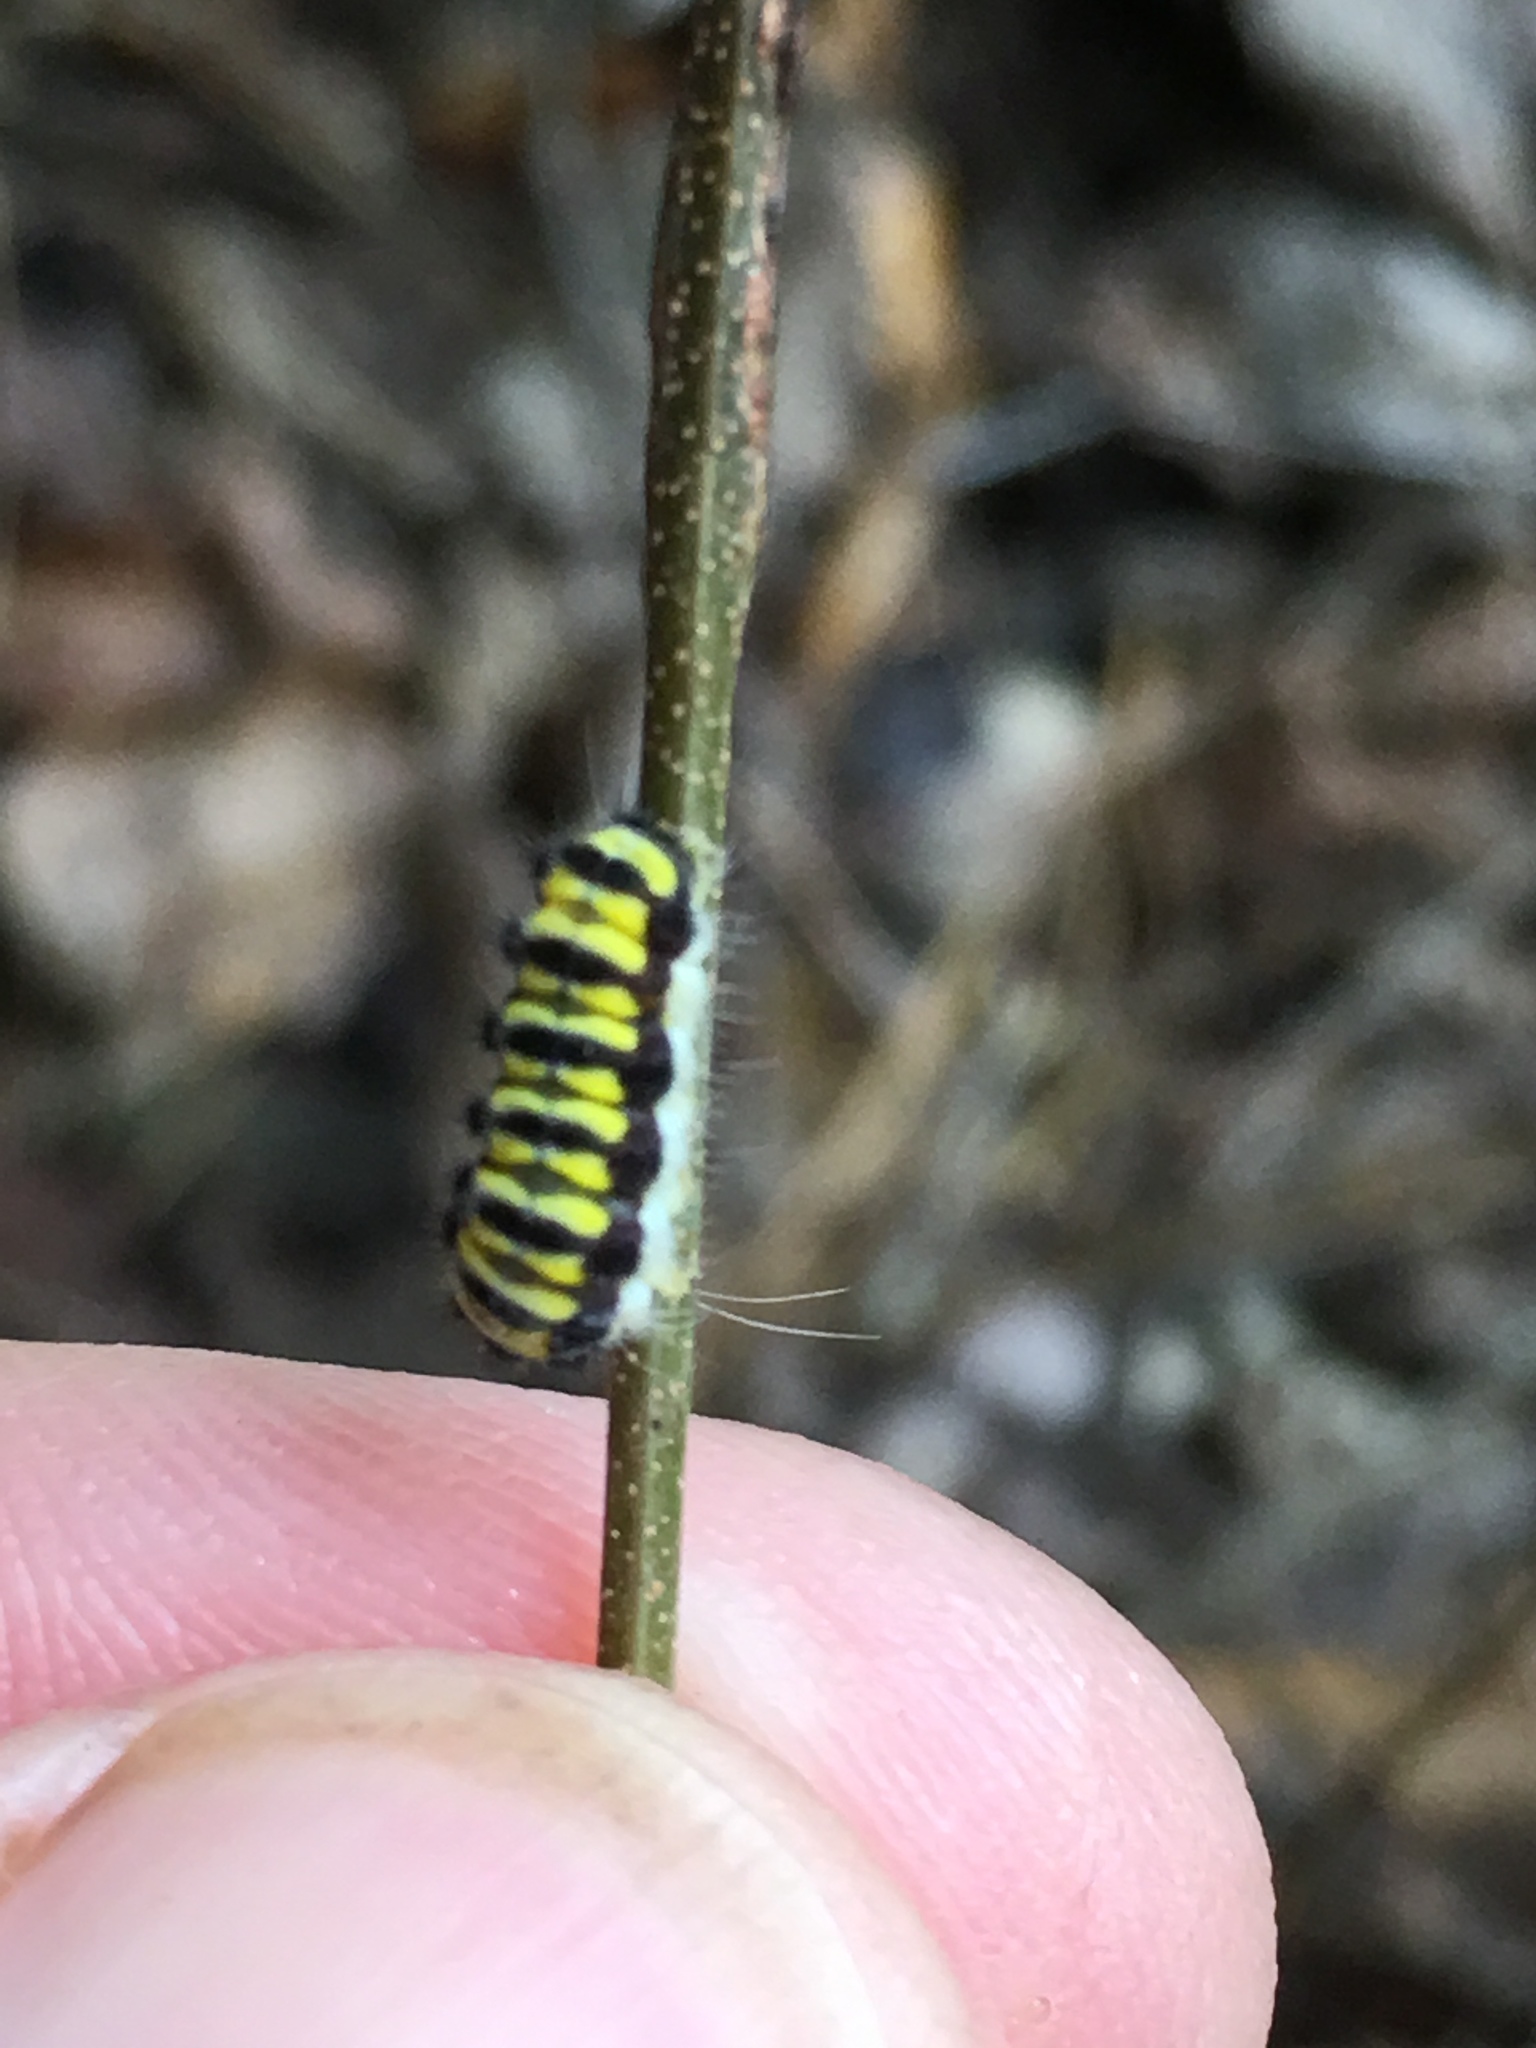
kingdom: Animalia
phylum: Arthropoda
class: Insecta
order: Lepidoptera
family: Zygaenidae
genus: Harrisina
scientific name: Harrisina americana
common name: Grapeleaf skeletonizer moth
